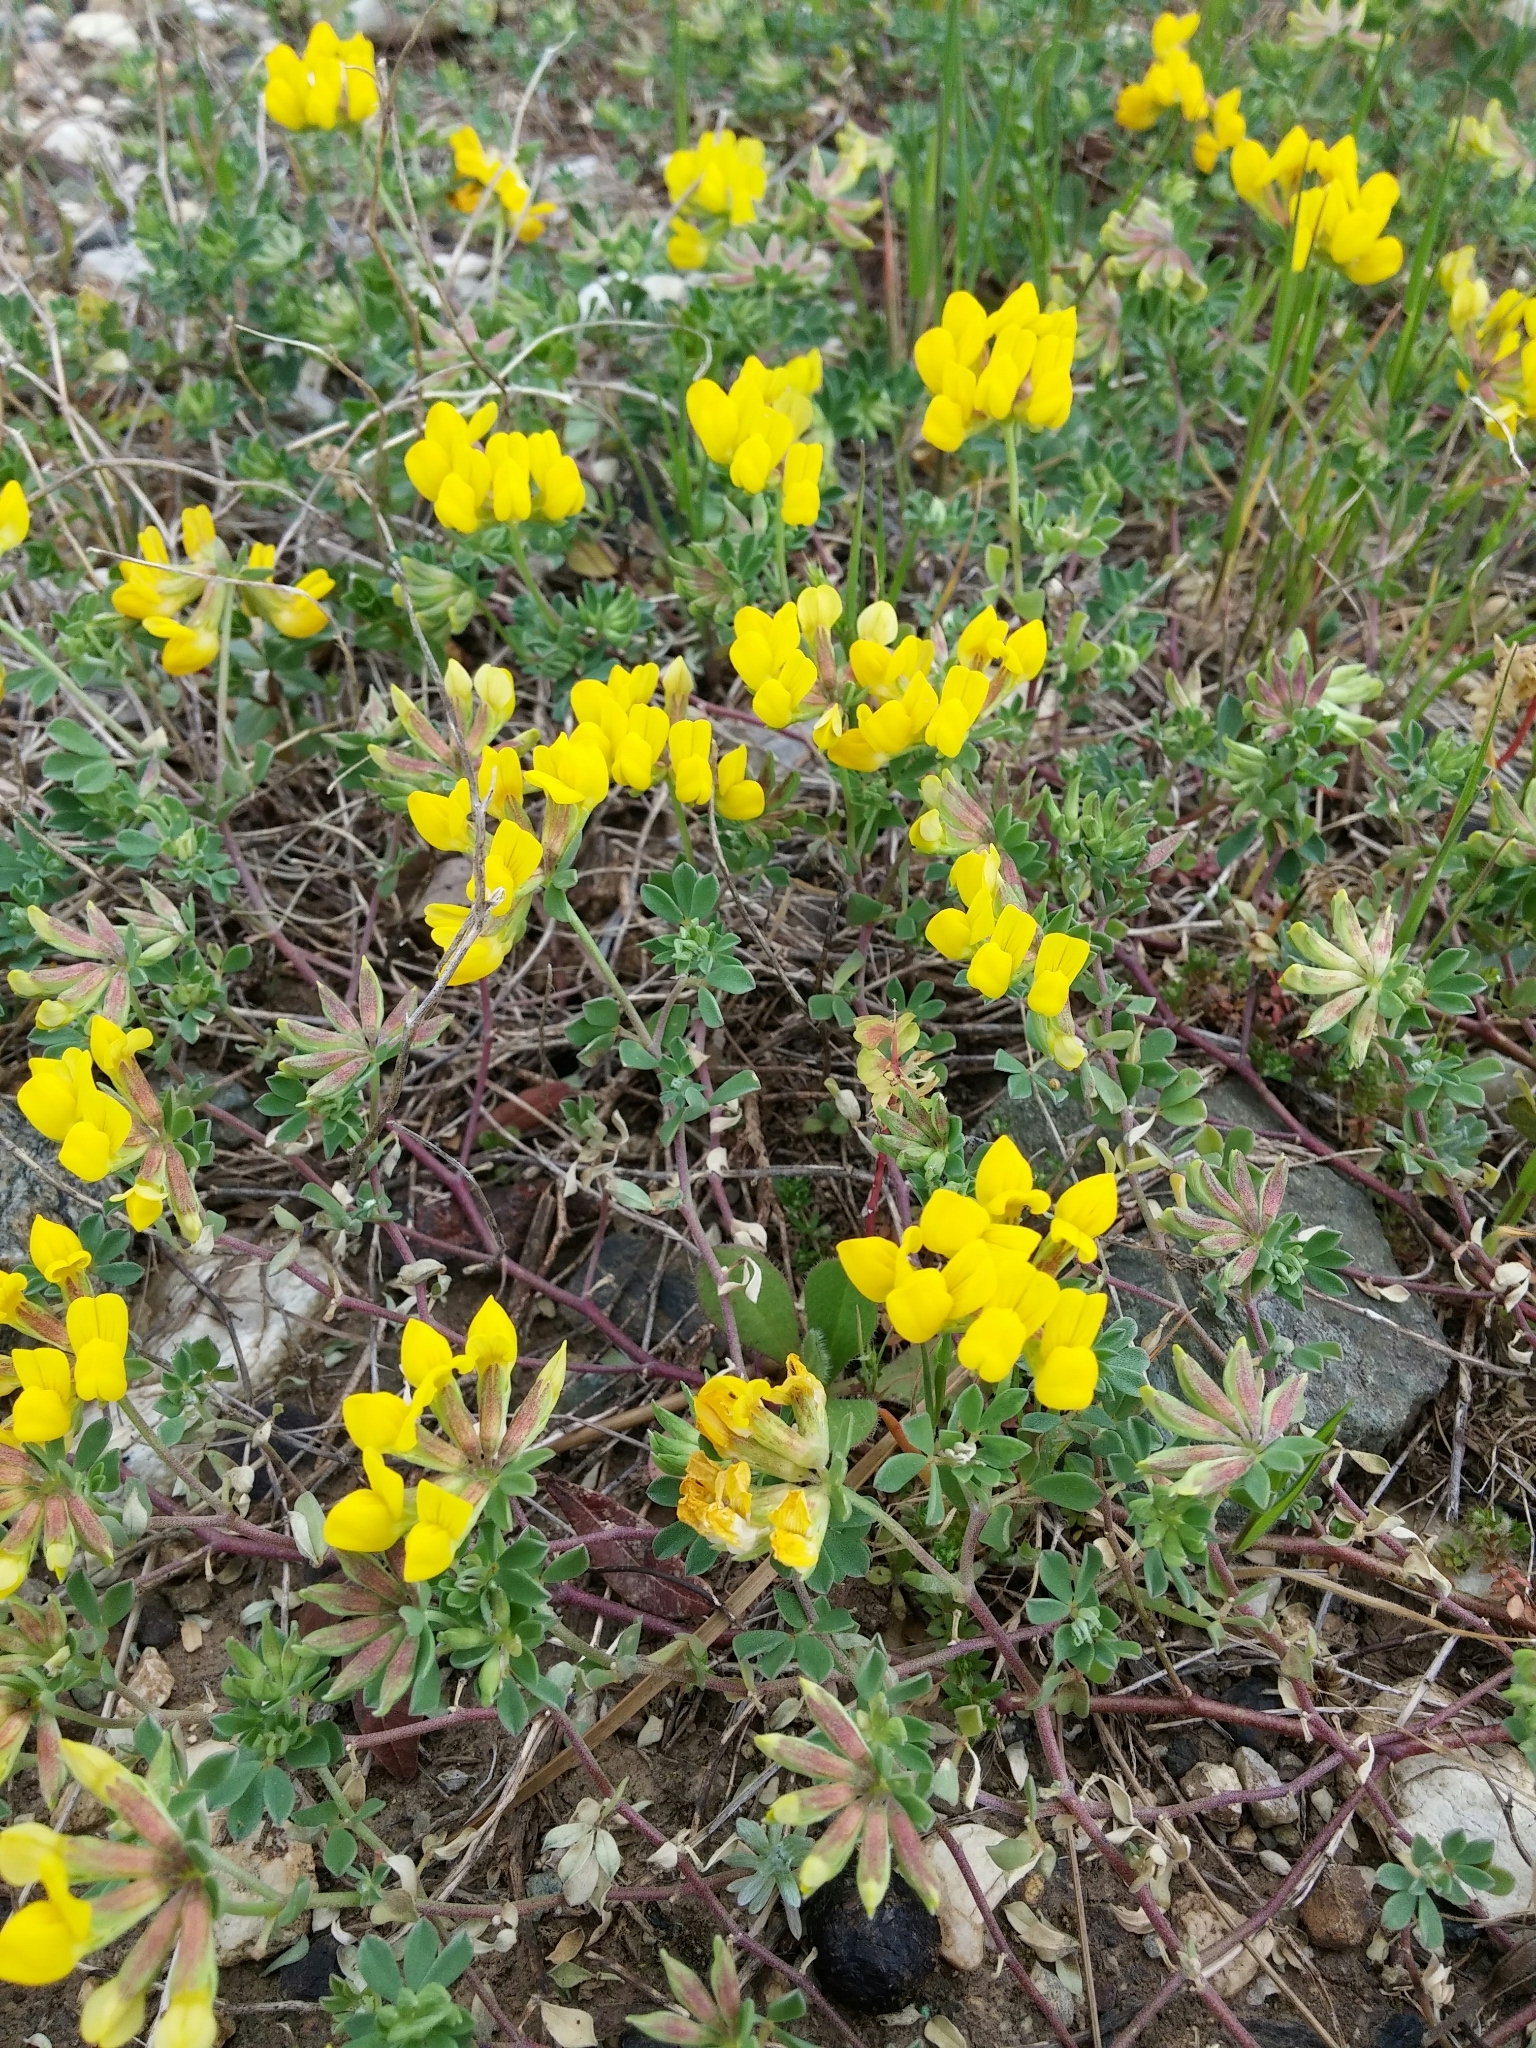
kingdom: Plantae
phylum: Tracheophyta
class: Magnoliopsida
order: Fabales
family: Fabaceae
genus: Lotus
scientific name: Lotus cytisoides
